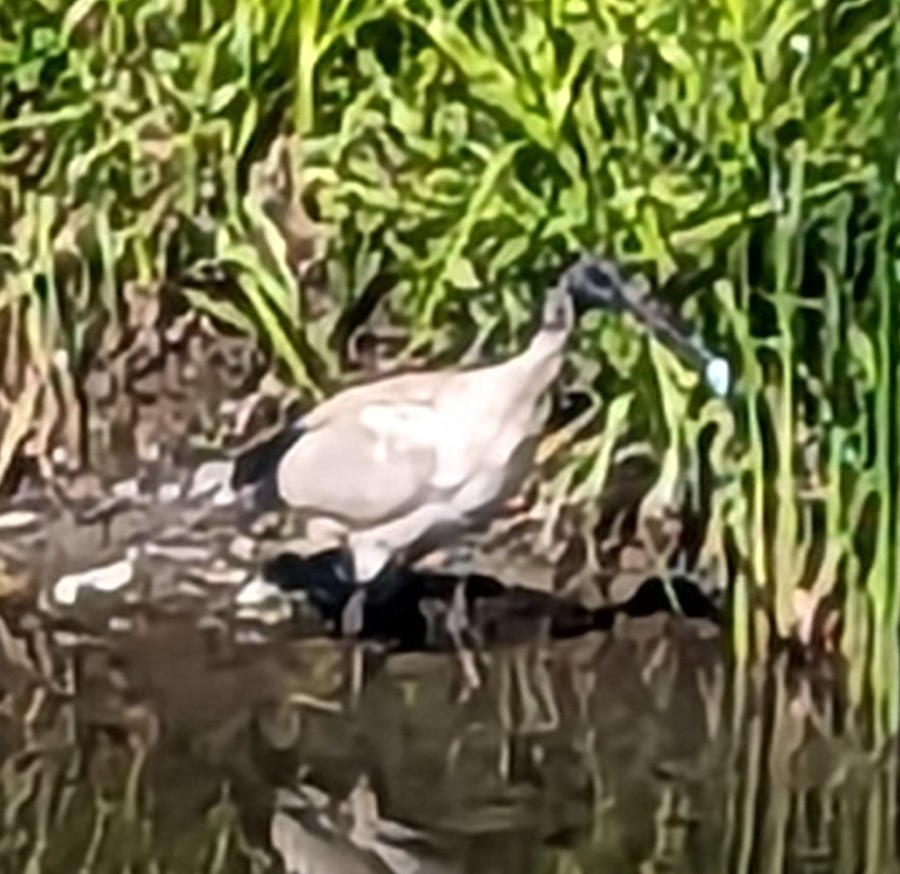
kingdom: Animalia
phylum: Chordata
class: Aves
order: Pelecaniformes
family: Threskiornithidae
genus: Threskiornis
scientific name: Threskiornis molucca
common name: Australian white ibis
